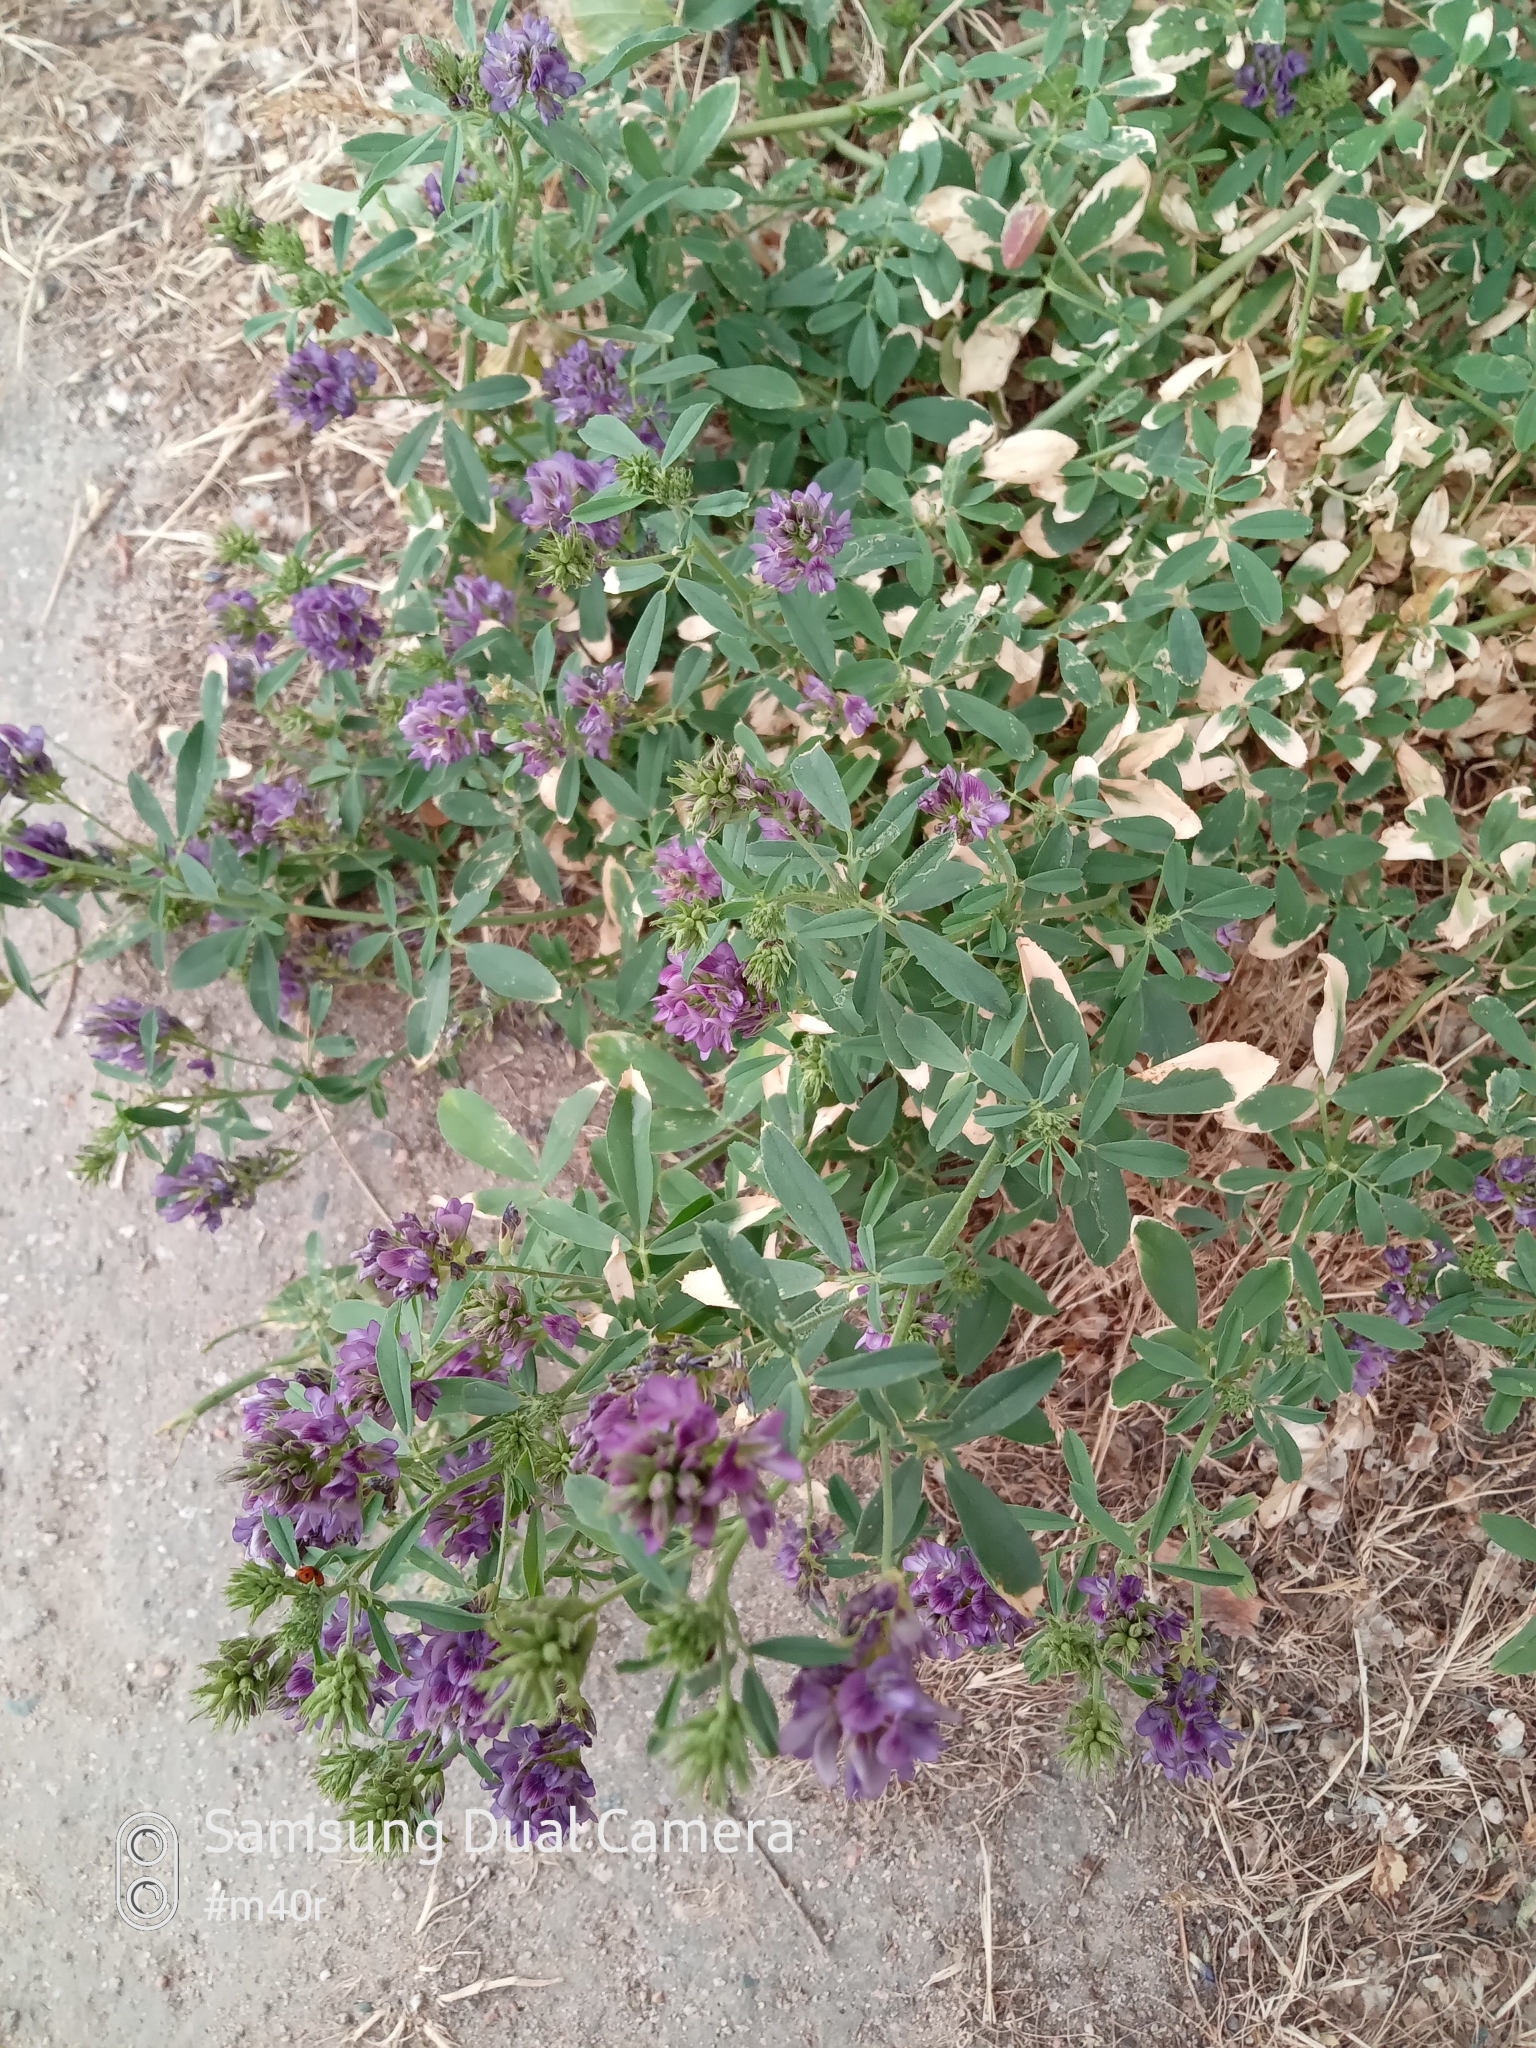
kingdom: Plantae
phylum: Tracheophyta
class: Magnoliopsida
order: Fabales
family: Fabaceae
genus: Medicago
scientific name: Medicago sativa
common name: Alfalfa
